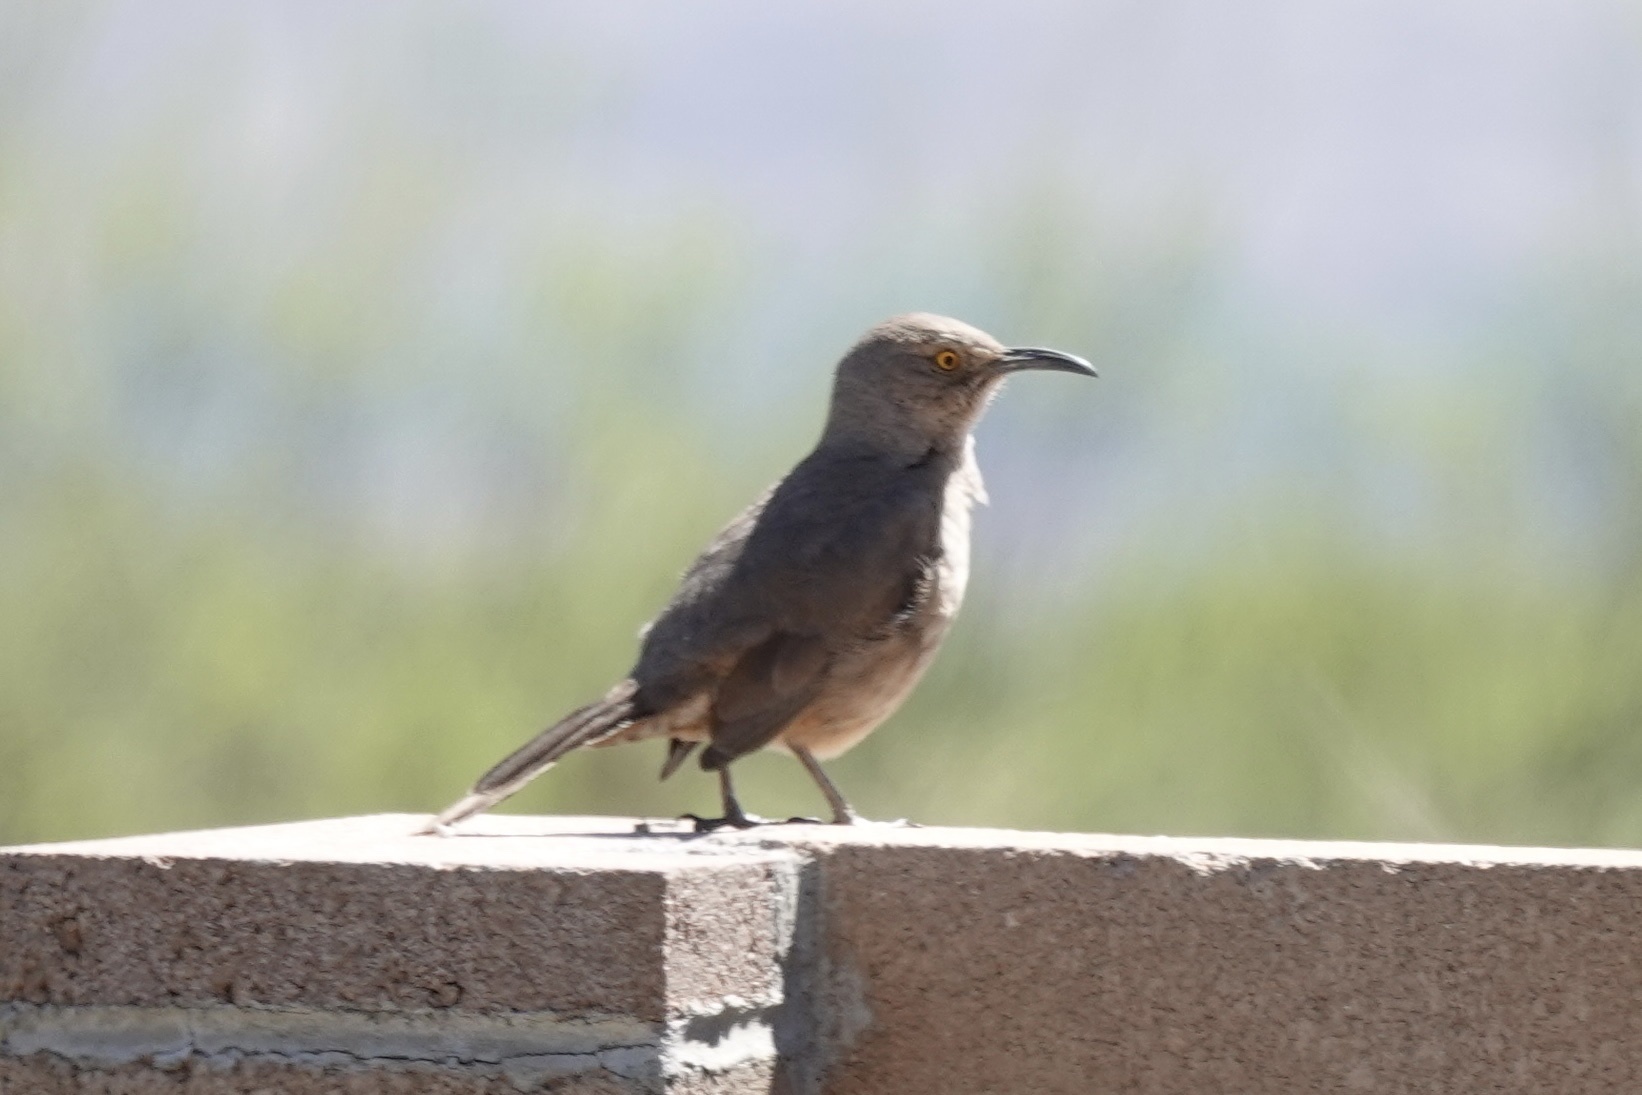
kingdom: Animalia
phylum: Chordata
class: Aves
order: Passeriformes
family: Mimidae
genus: Toxostoma
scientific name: Toxostoma curvirostre
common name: Curve-billed thrasher
